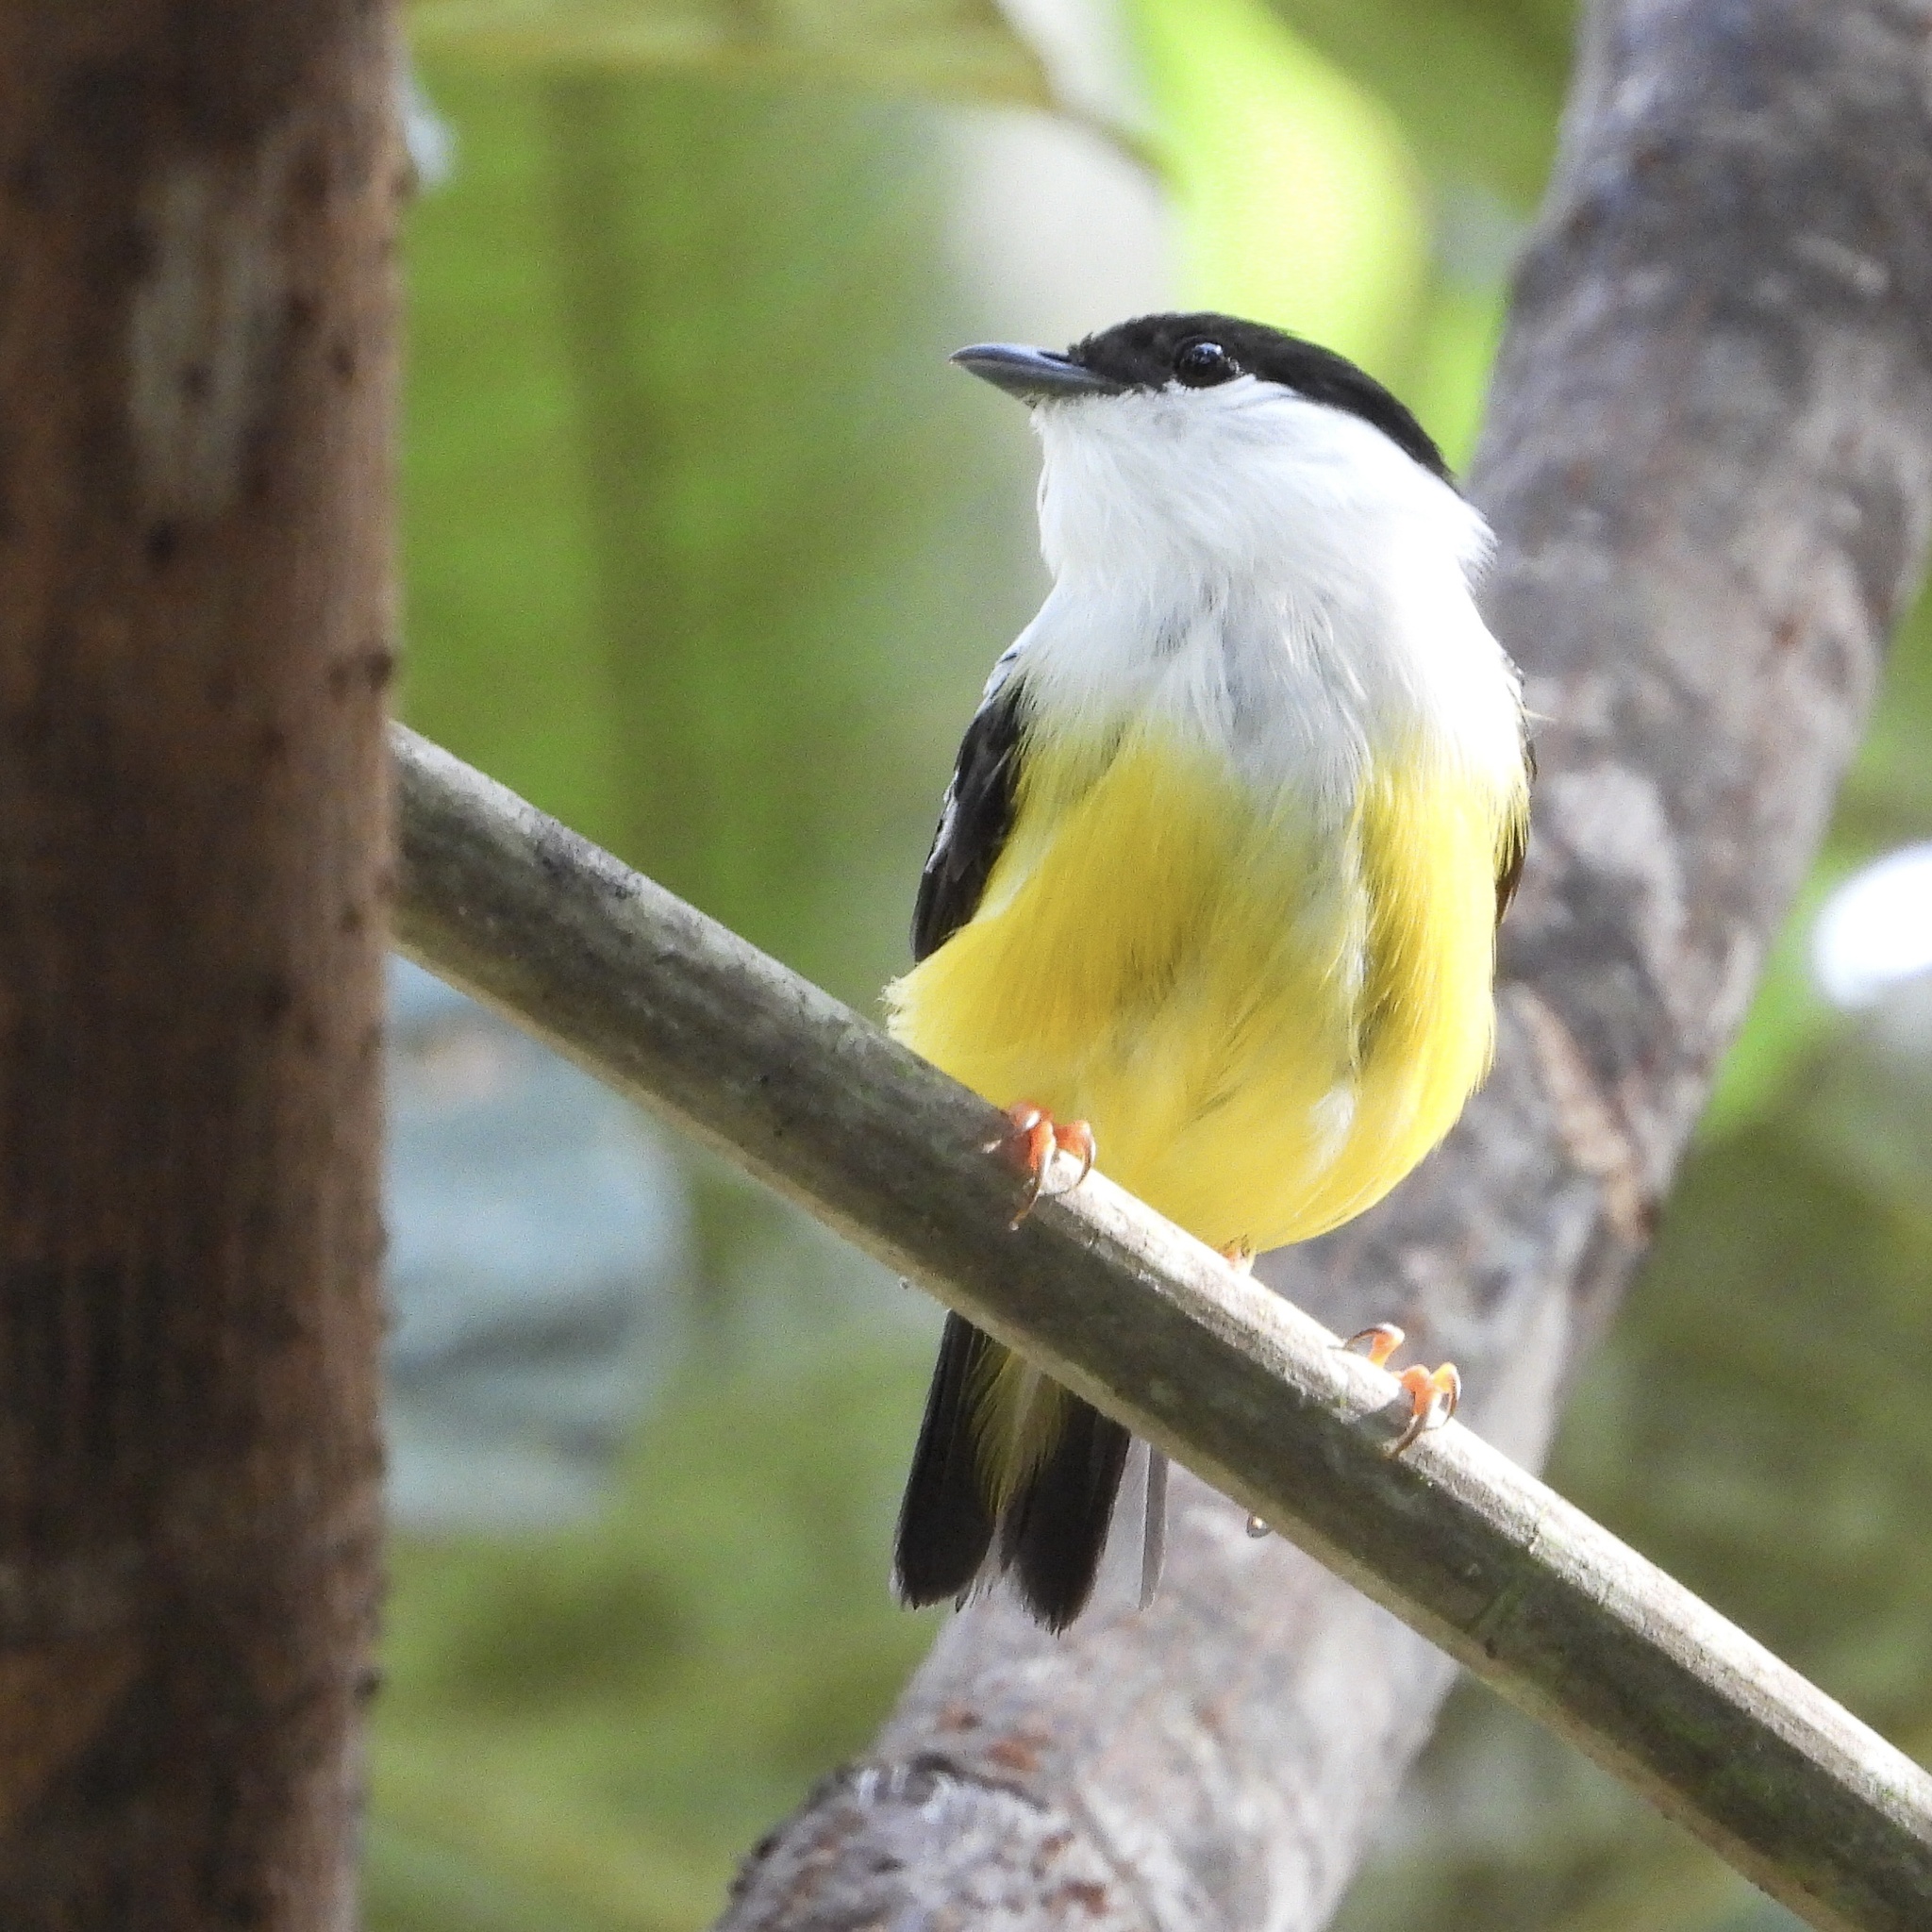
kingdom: Animalia
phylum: Chordata
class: Aves
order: Passeriformes
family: Pipridae
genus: Manacus
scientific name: Manacus candei
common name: White-collared manakin
